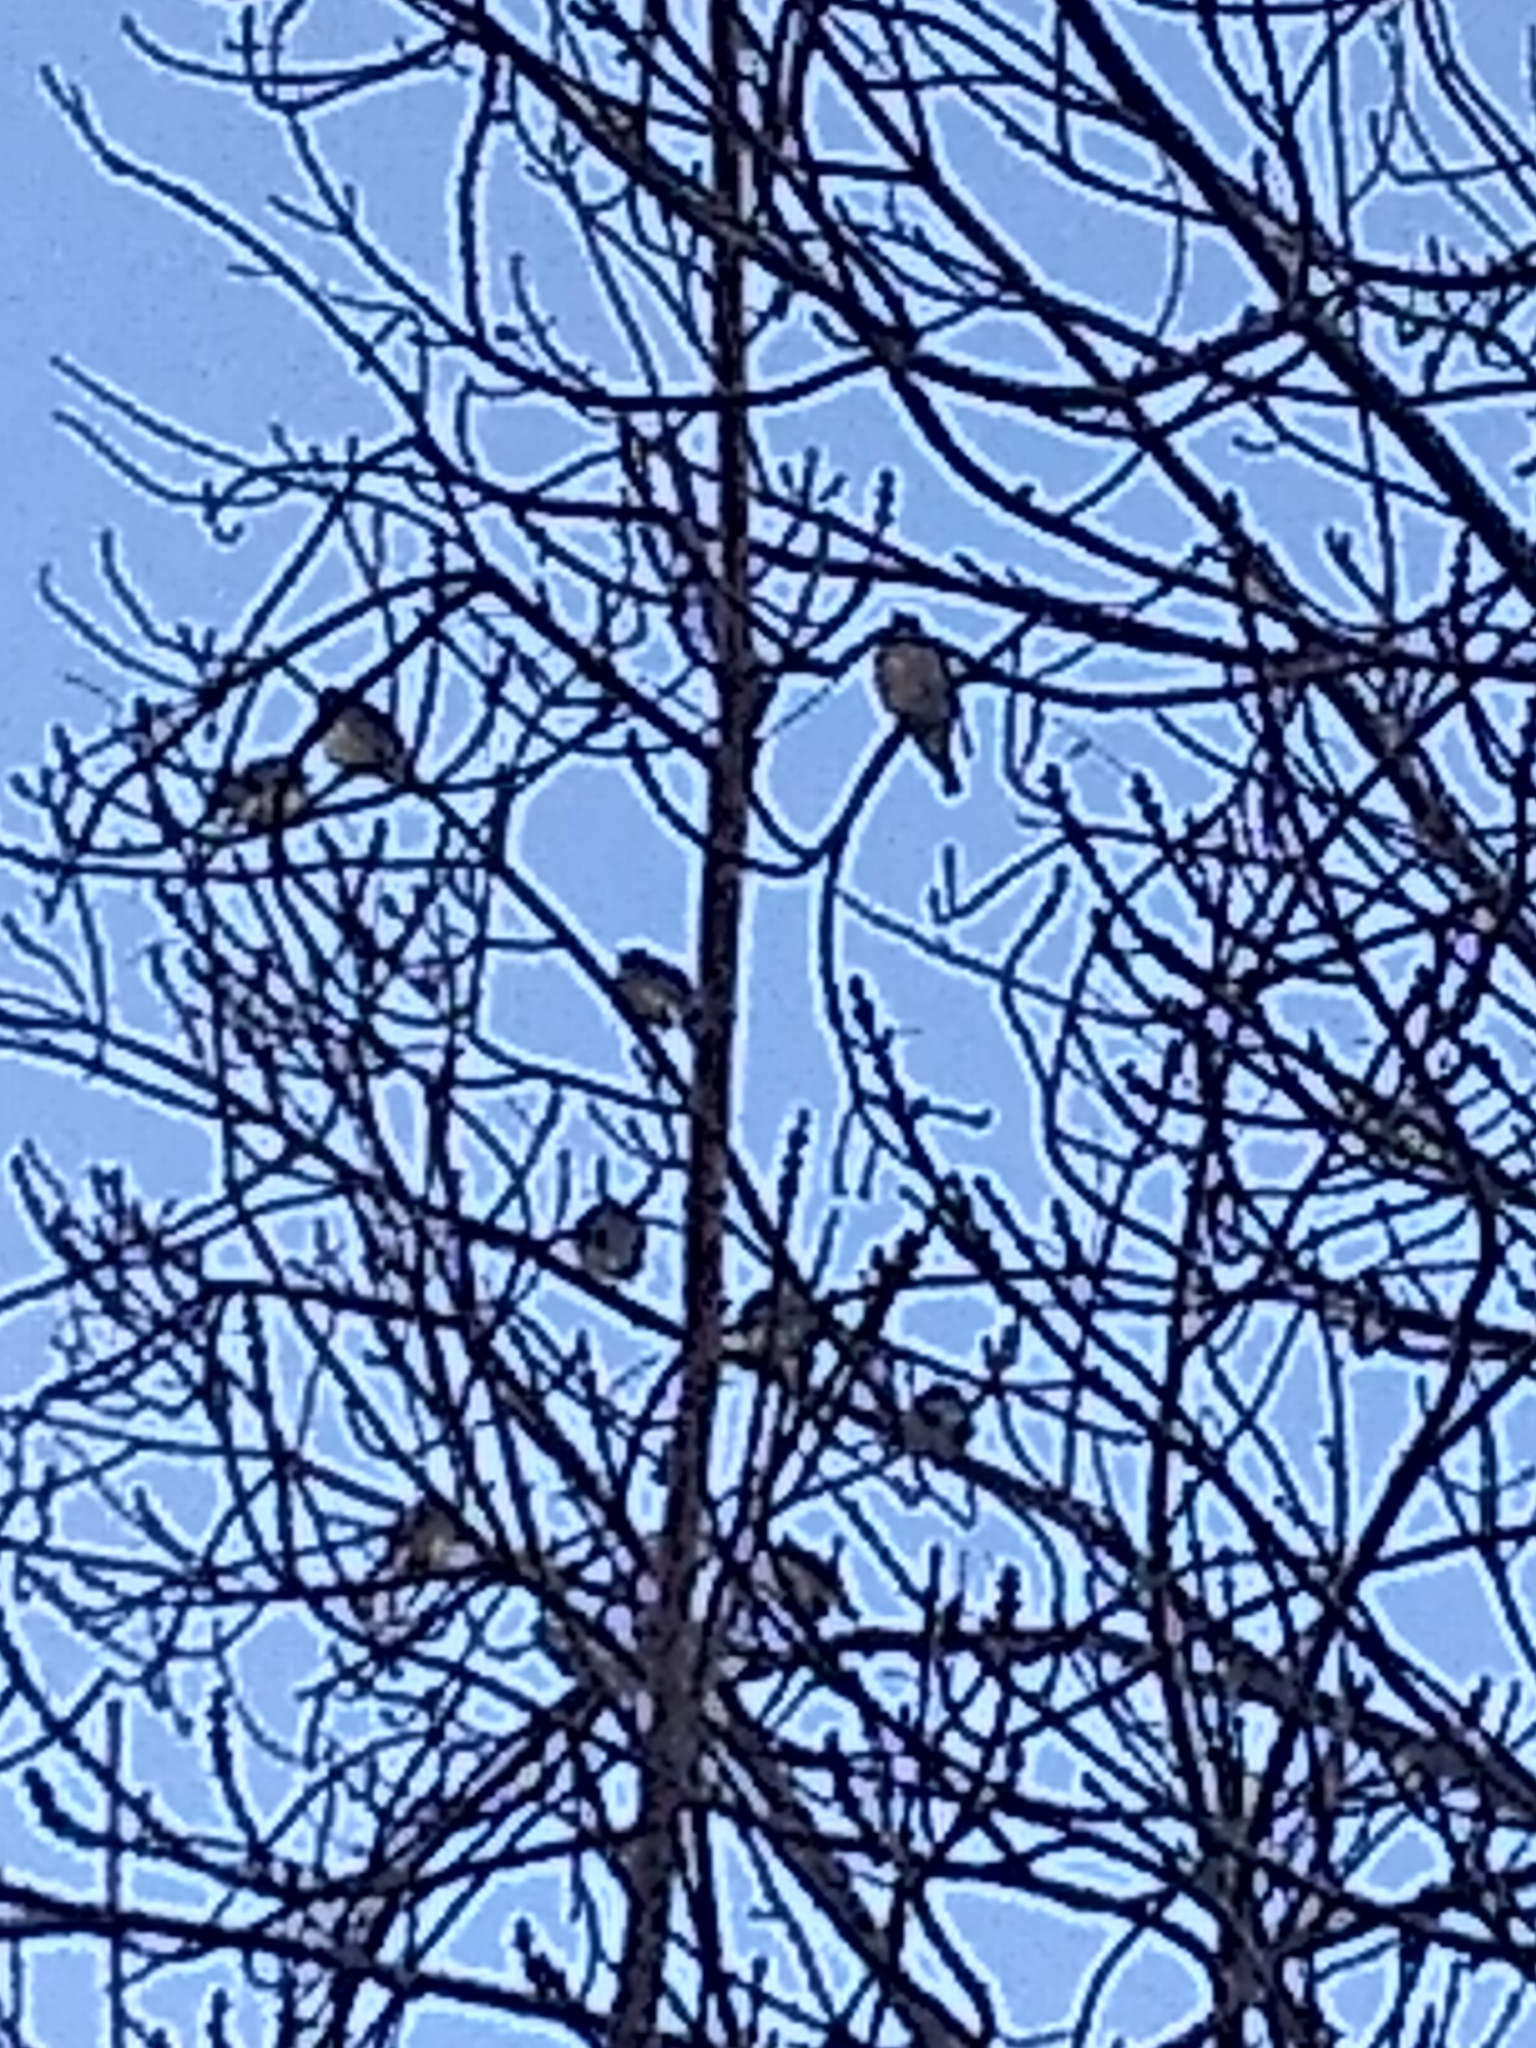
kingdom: Animalia
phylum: Chordata
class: Aves
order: Passeriformes
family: Bombycillidae
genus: Bombycilla
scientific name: Bombycilla cedrorum
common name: Cedar waxwing
